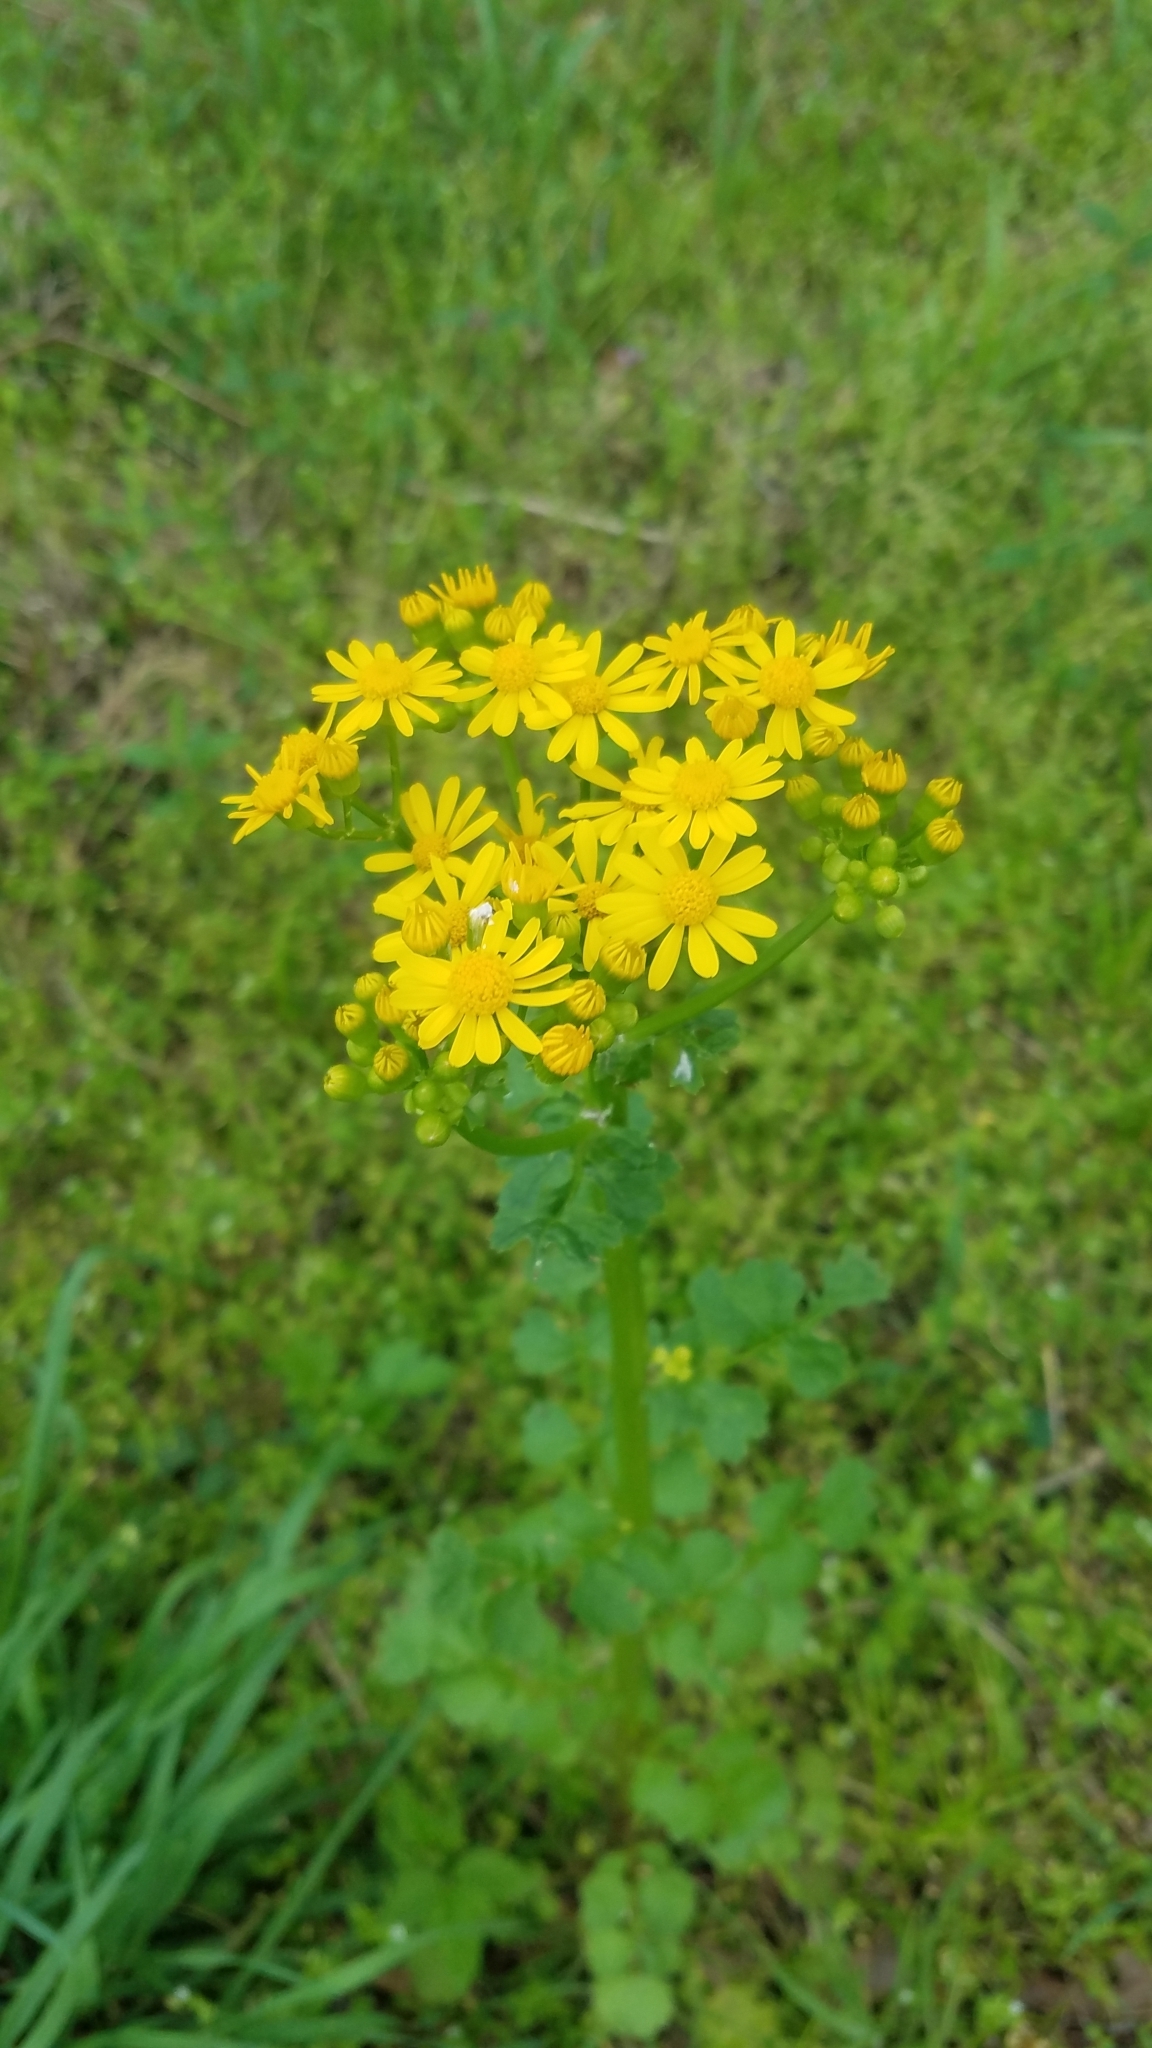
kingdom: Plantae
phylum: Tracheophyta
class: Magnoliopsida
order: Asterales
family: Asteraceae
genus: Packera
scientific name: Packera glabella
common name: Butterweed
